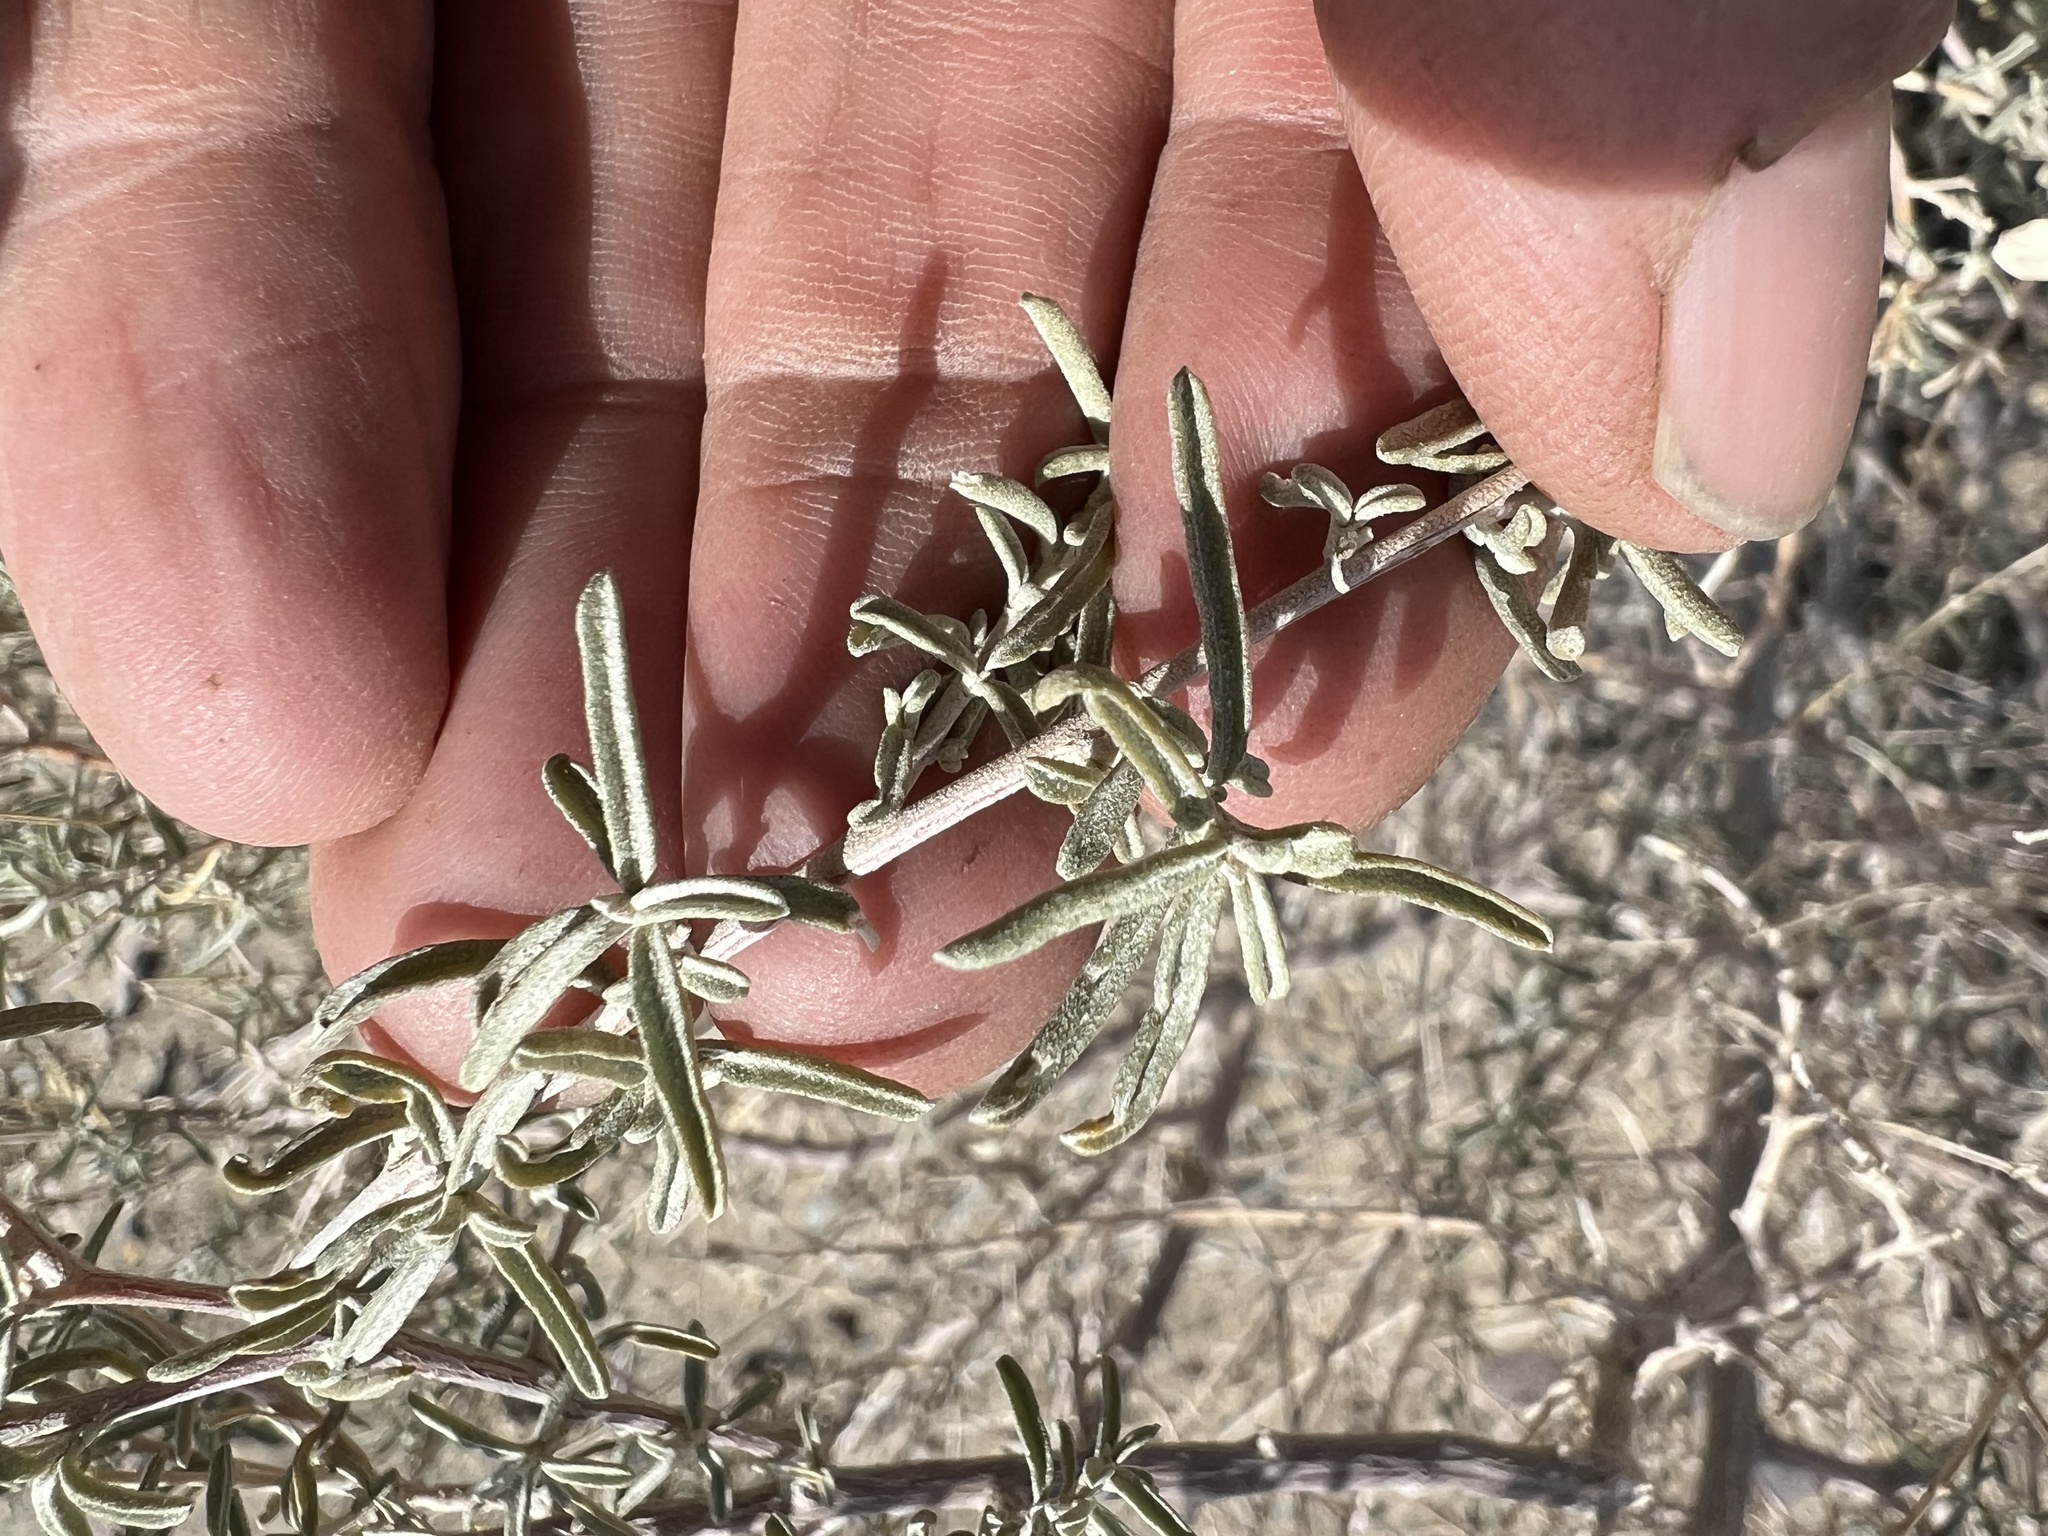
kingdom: Plantae
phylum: Tracheophyta
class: Magnoliopsida
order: Caryophyllales
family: Amaranthaceae
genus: Atriplex
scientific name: Atriplex canescens
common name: Four-wing saltbush
